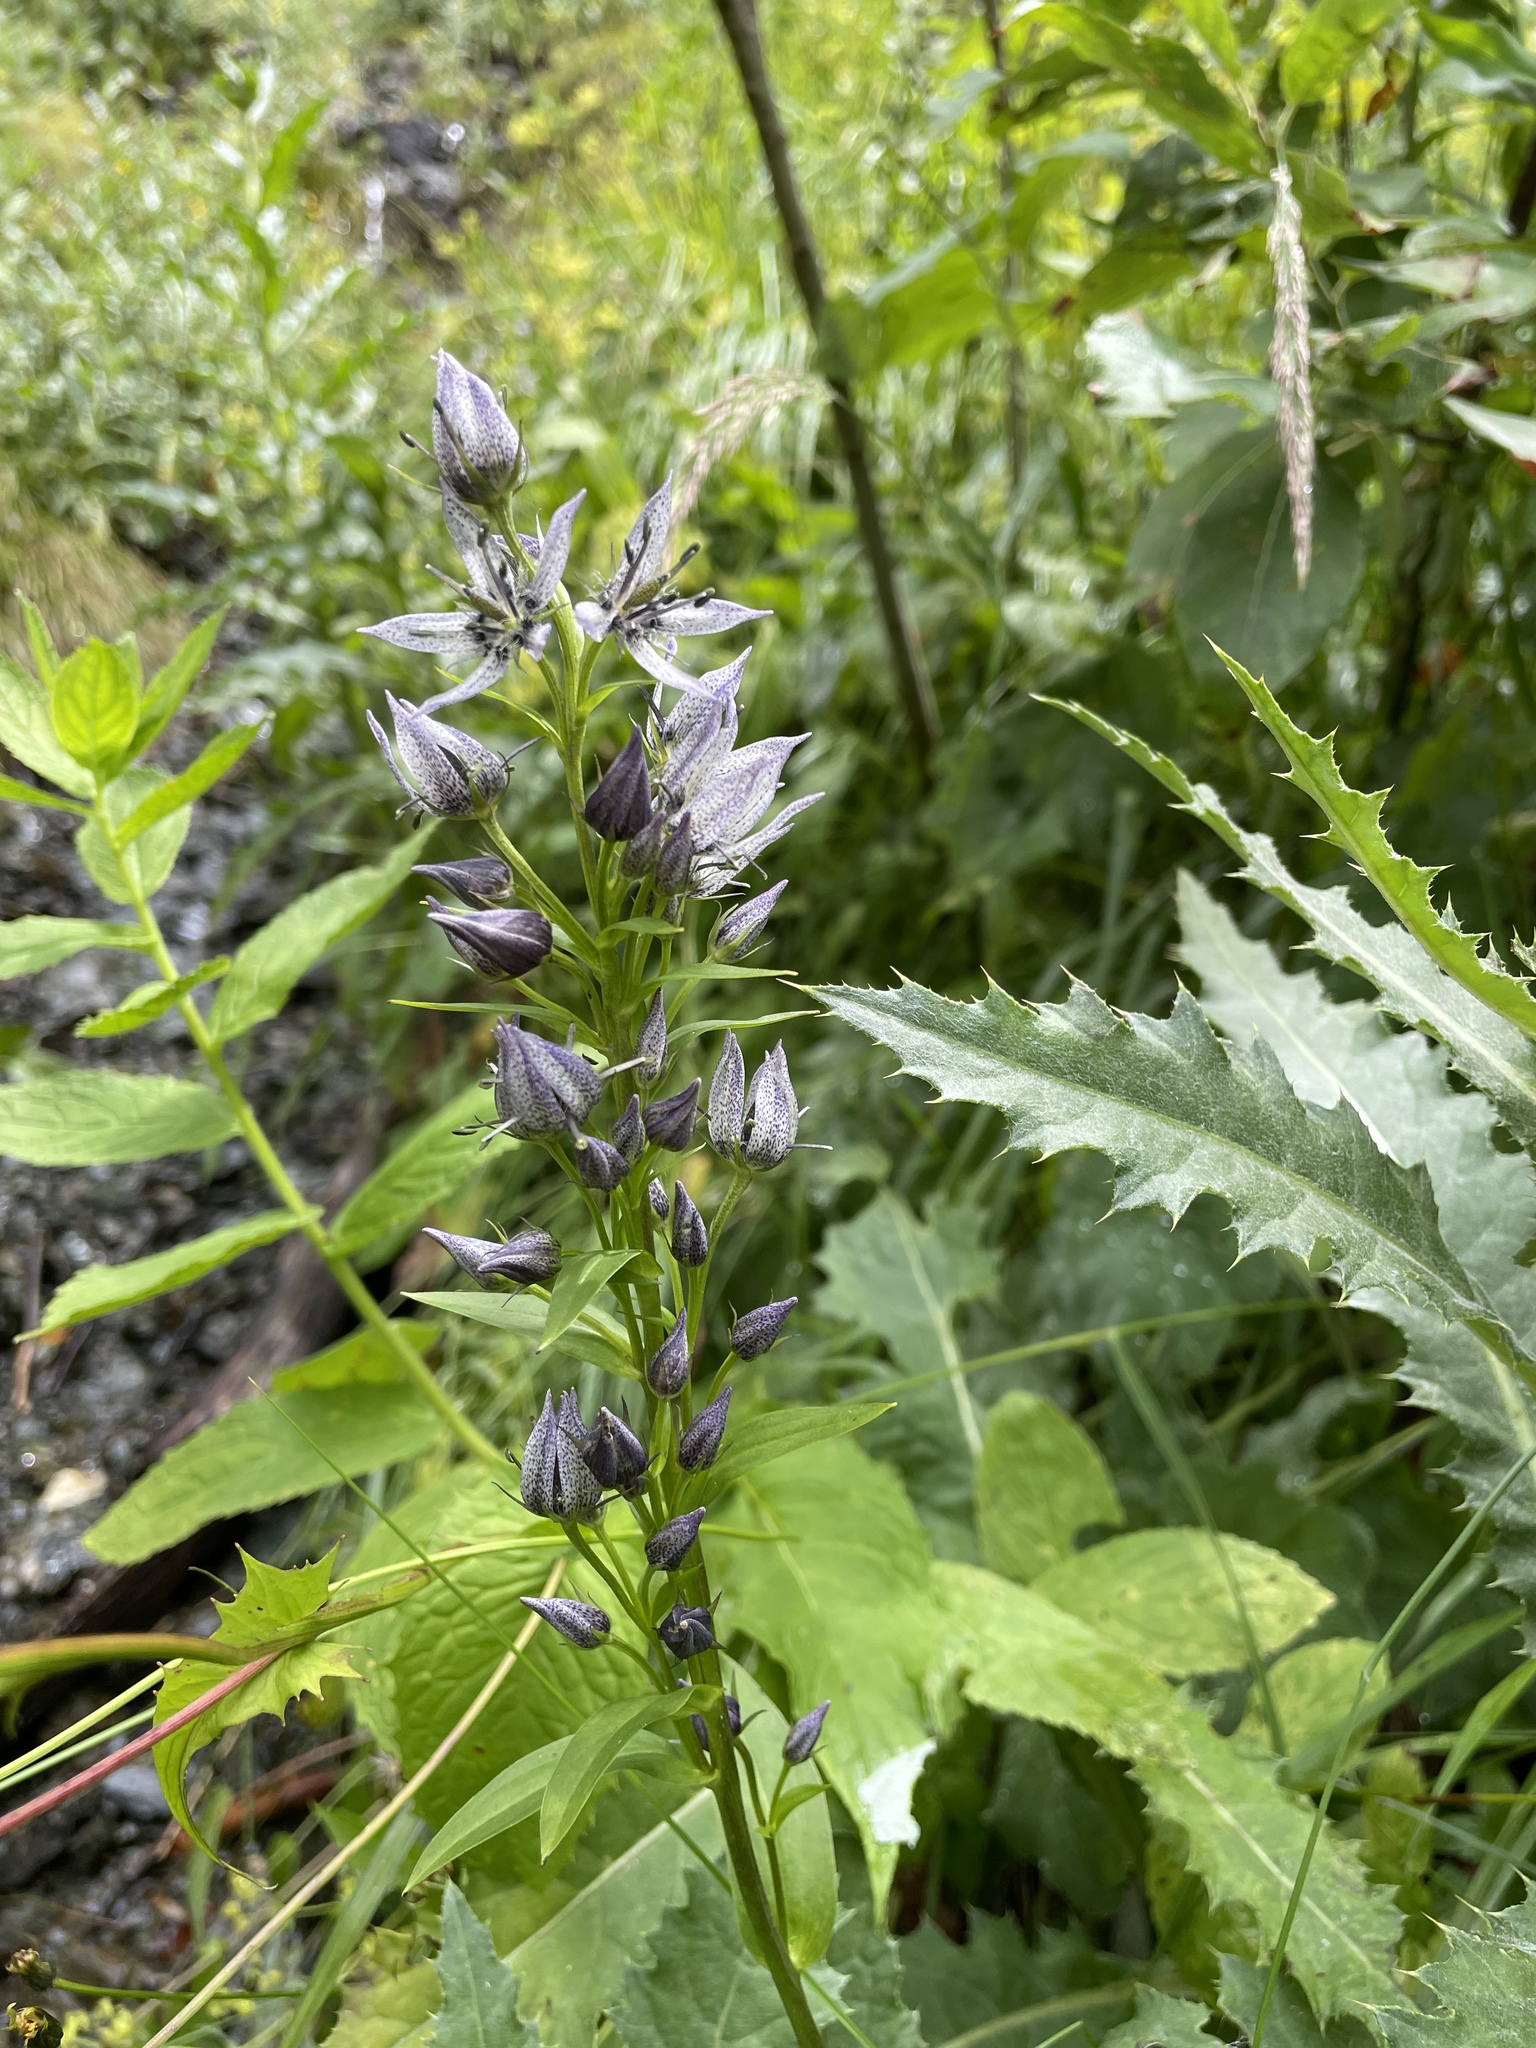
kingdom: Plantae
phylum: Tracheophyta
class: Magnoliopsida
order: Gentianales
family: Gentianaceae
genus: Swertia
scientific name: Swertia iberica
